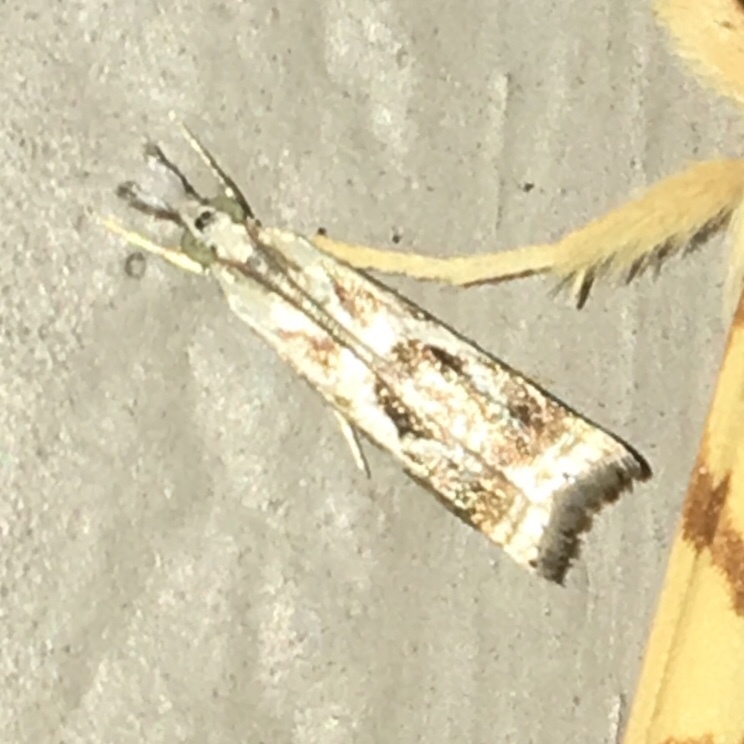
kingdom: Animalia
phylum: Arthropoda
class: Insecta
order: Lepidoptera
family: Crambidae
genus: Microcrambus
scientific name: Microcrambus elegans
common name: Elegant grass-veneer
